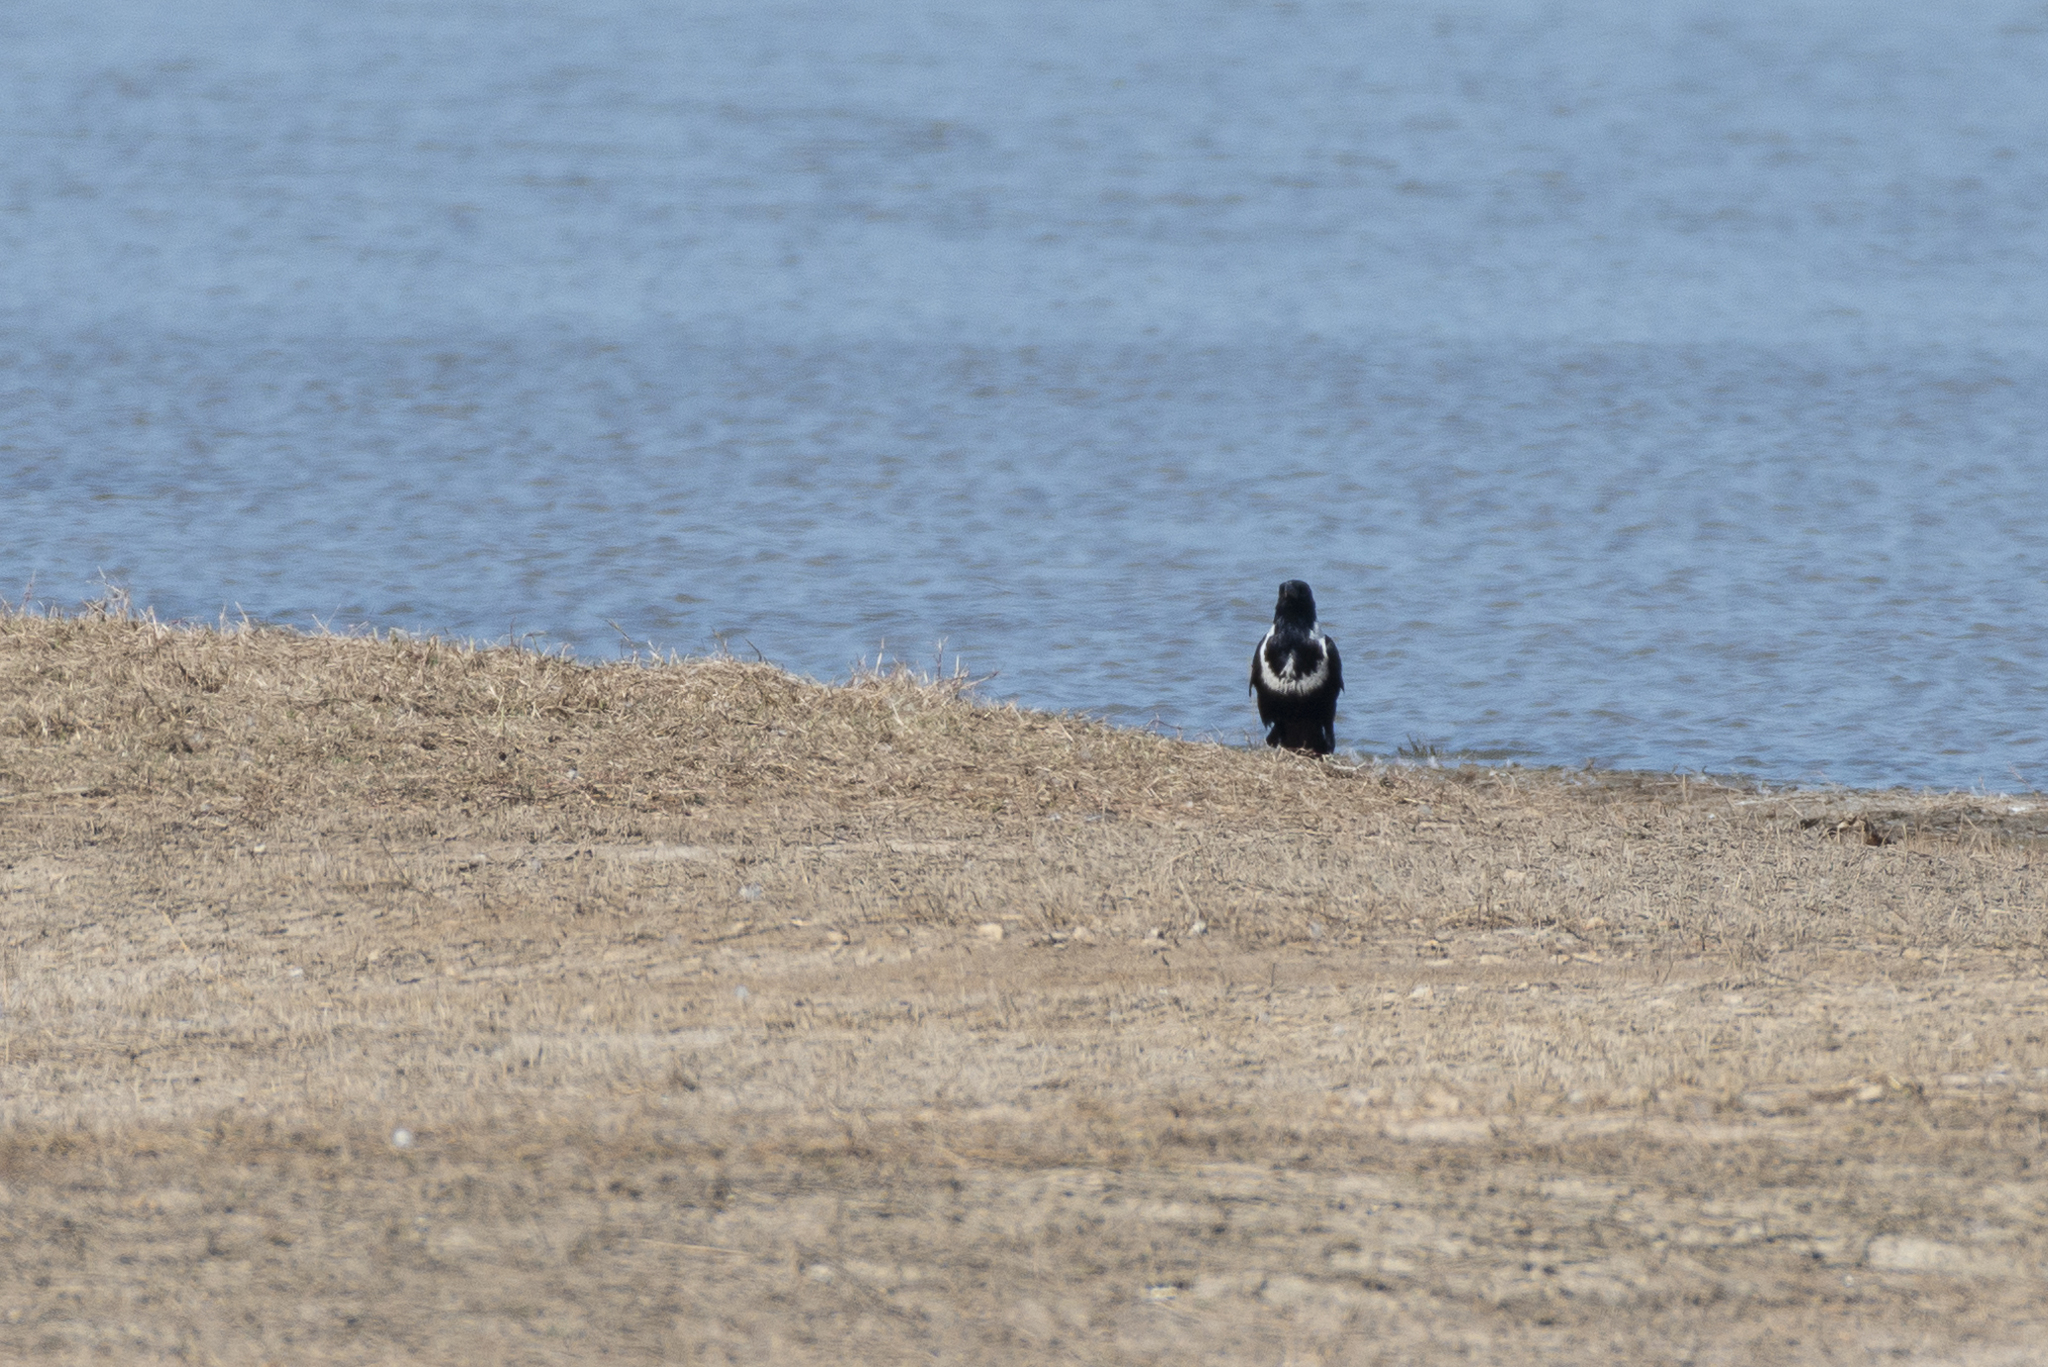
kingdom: Animalia
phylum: Chordata
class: Aves
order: Passeriformes
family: Corvidae
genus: Corvus
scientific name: Corvus pectoralis
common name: Collared crow
